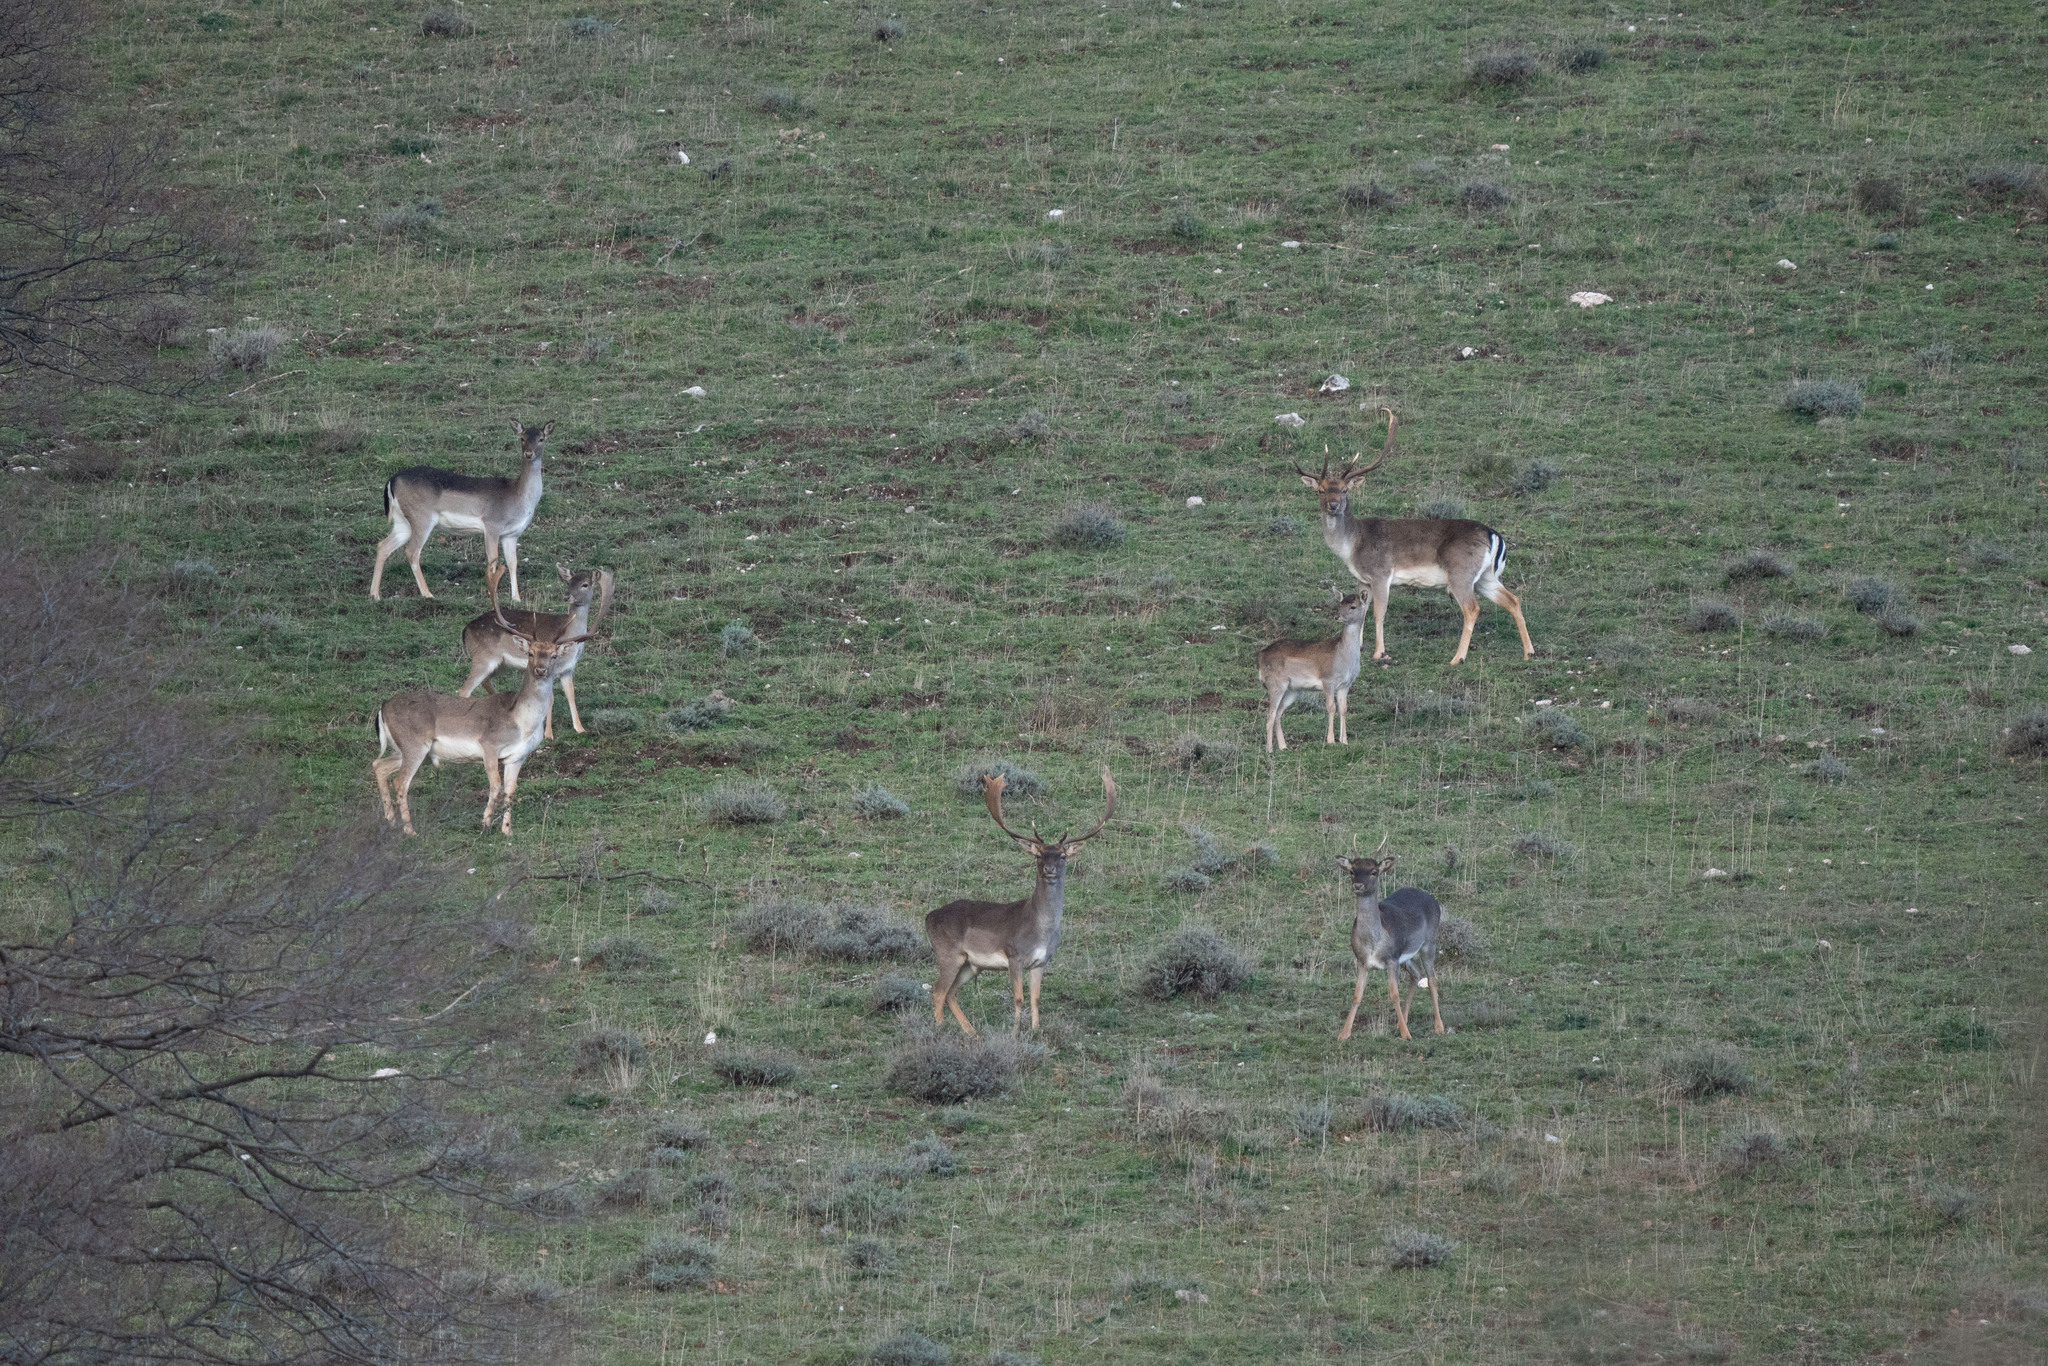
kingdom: Animalia
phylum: Chordata
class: Mammalia
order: Artiodactyla
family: Cervidae
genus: Dama
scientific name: Dama dama
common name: Fallow deer
